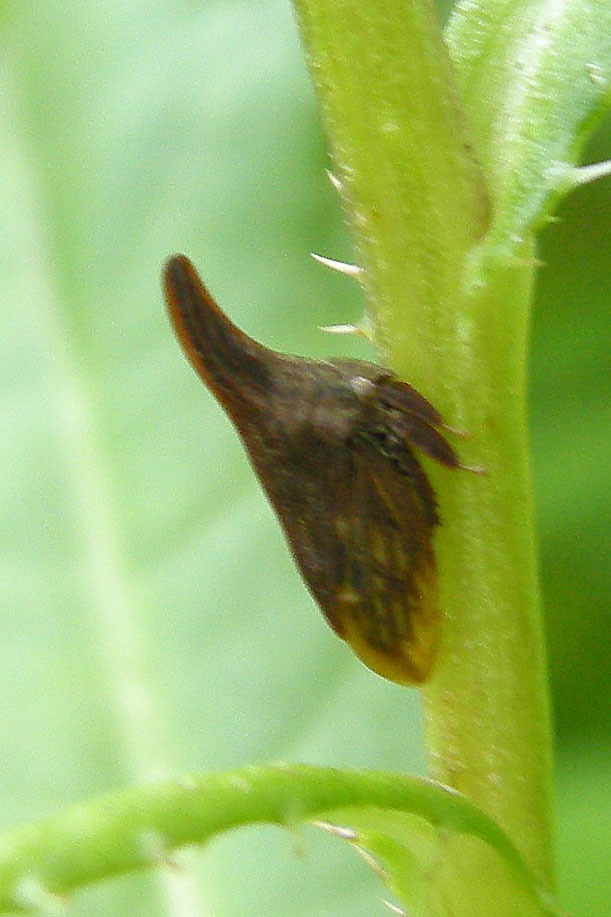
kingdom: Animalia
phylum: Arthropoda
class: Insecta
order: Hemiptera
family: Membracidae
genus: Enchenopa
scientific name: Enchenopa latipes
